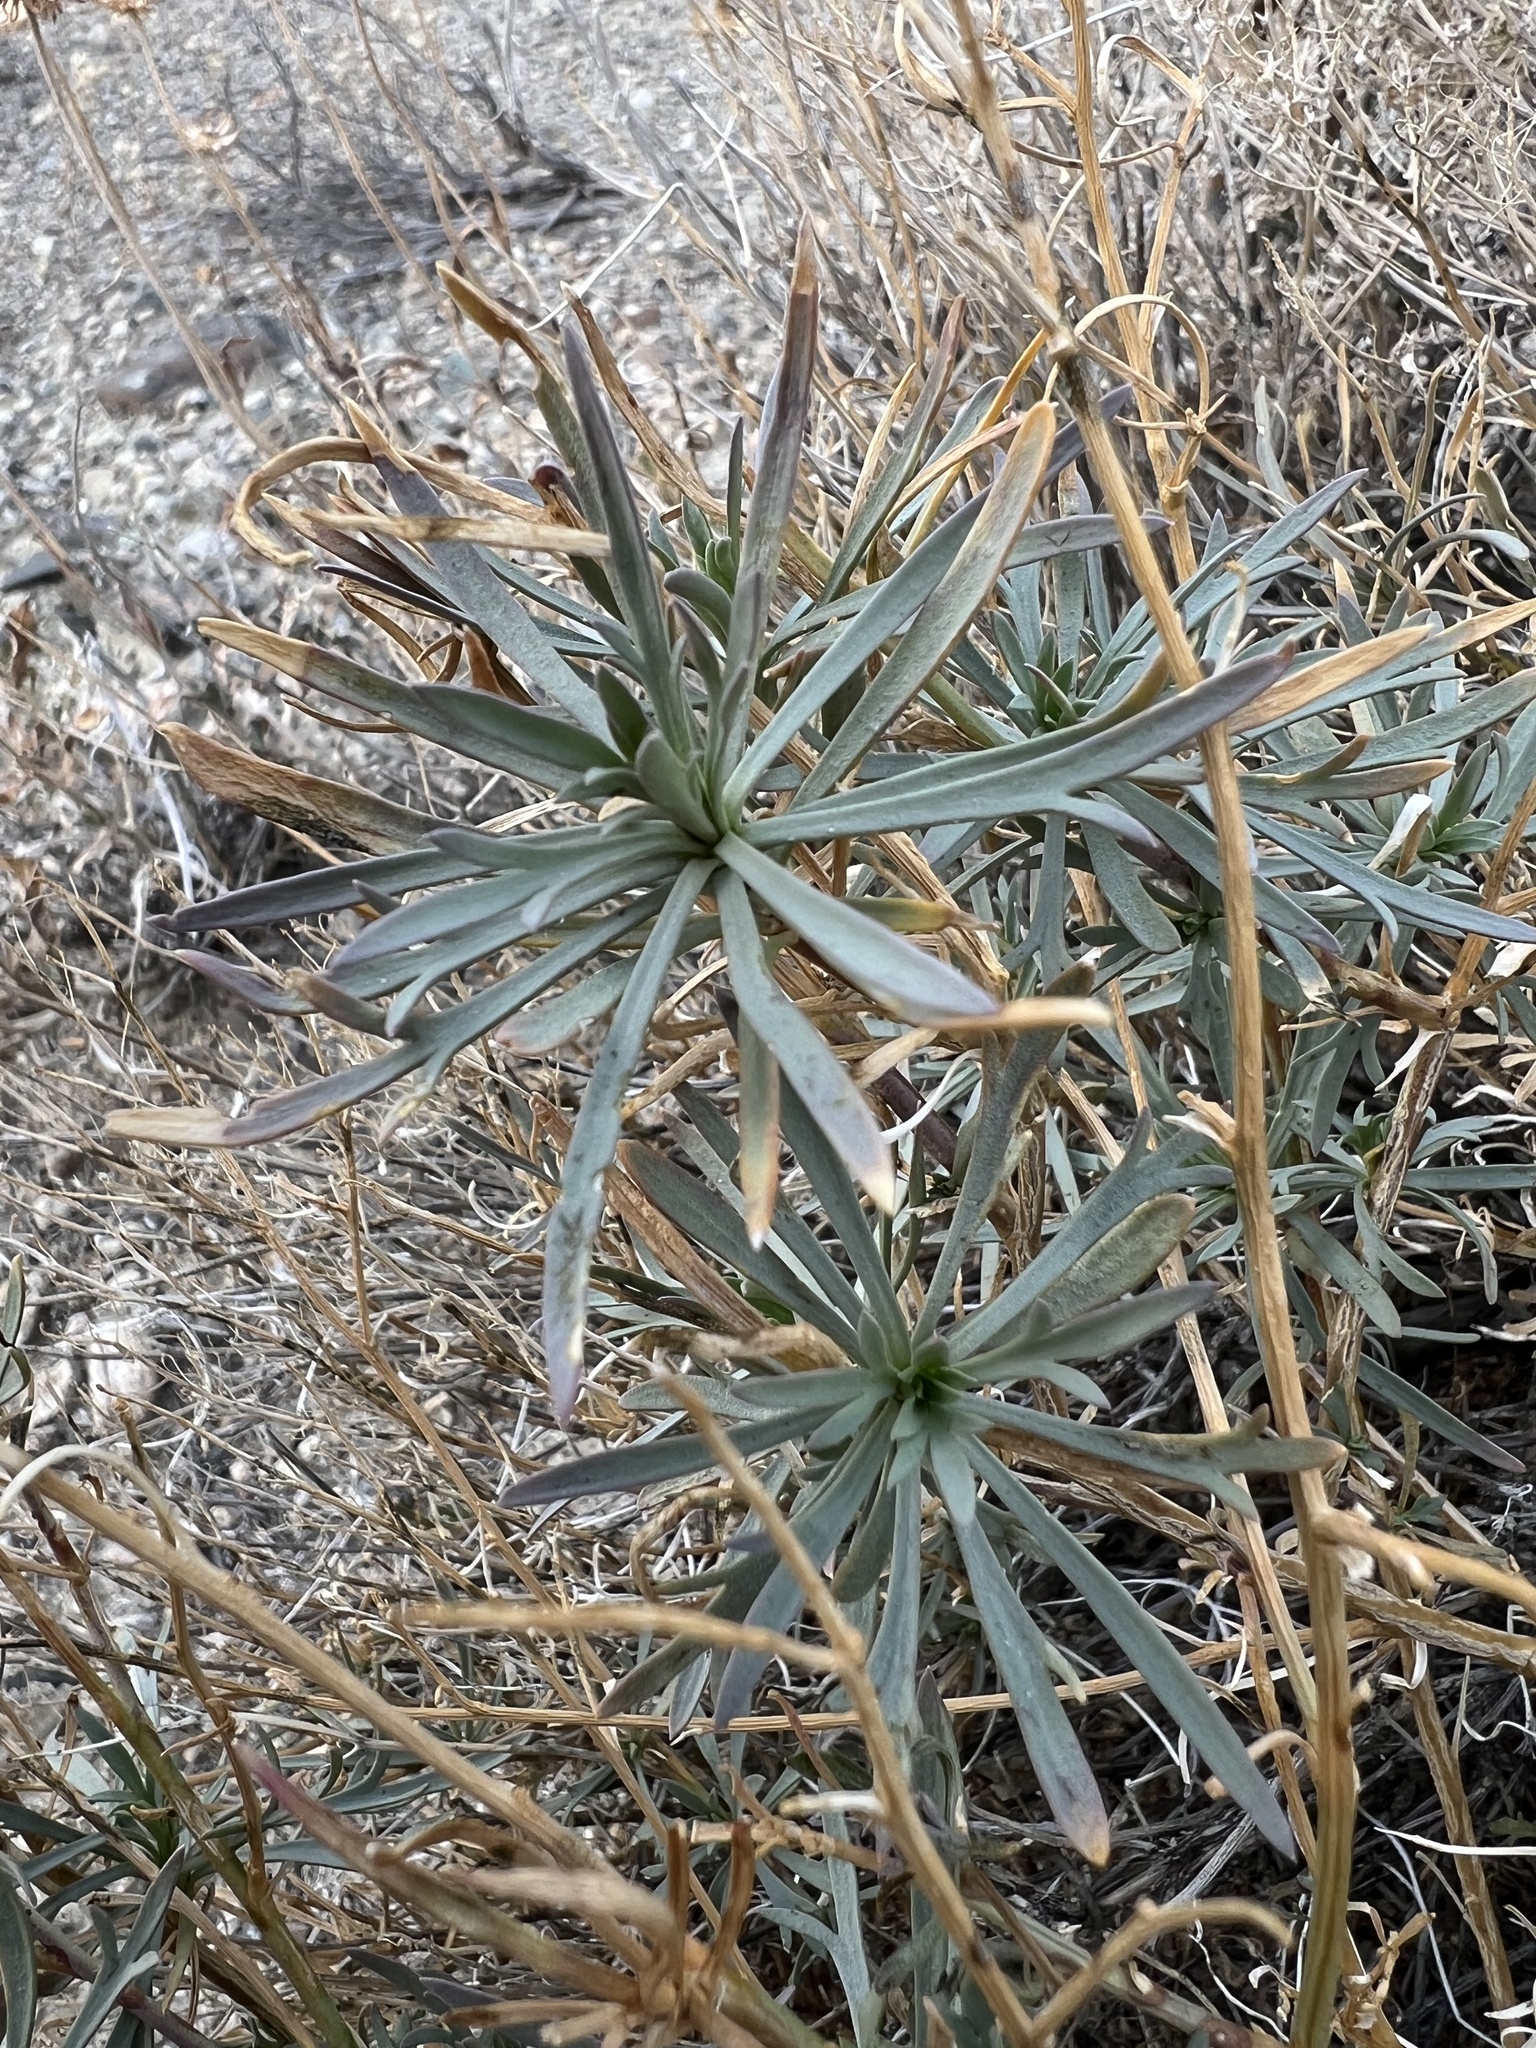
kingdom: Plantae
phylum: Tracheophyta
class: Magnoliopsida
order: Brassicales
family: Brassicaceae
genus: Lepidium
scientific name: Lepidium fremontii
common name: Fremont's pepperwort
